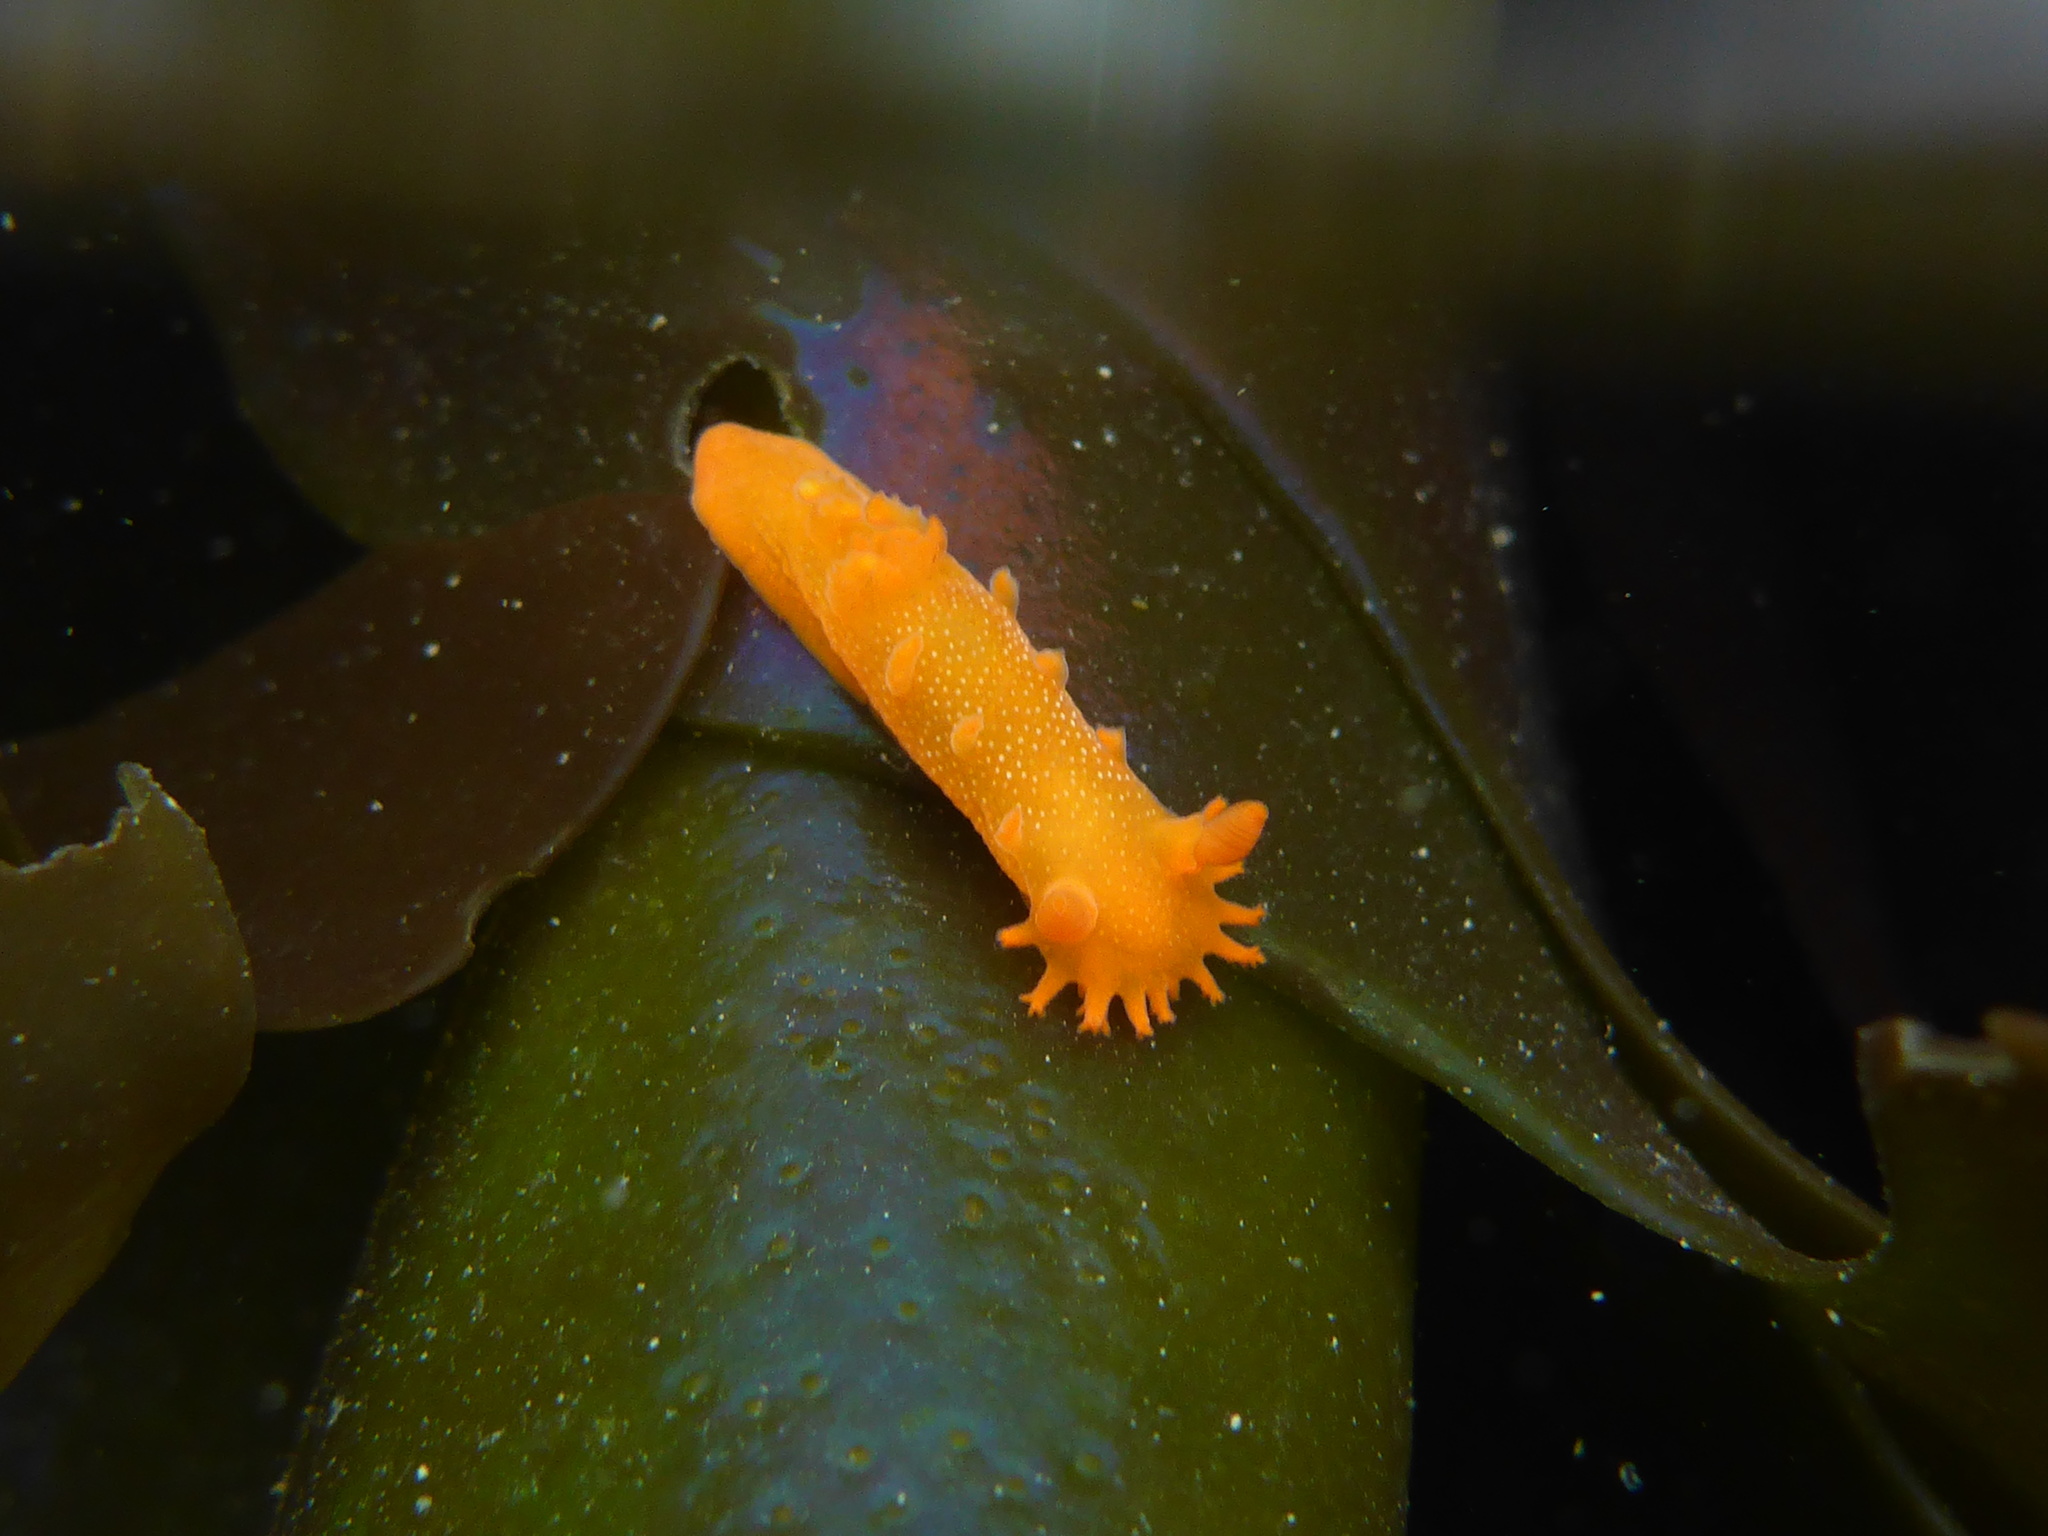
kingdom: Animalia
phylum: Mollusca
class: Gastropoda
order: Nudibranchia
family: Polyceridae
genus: Triopha
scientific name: Triopha maculata
